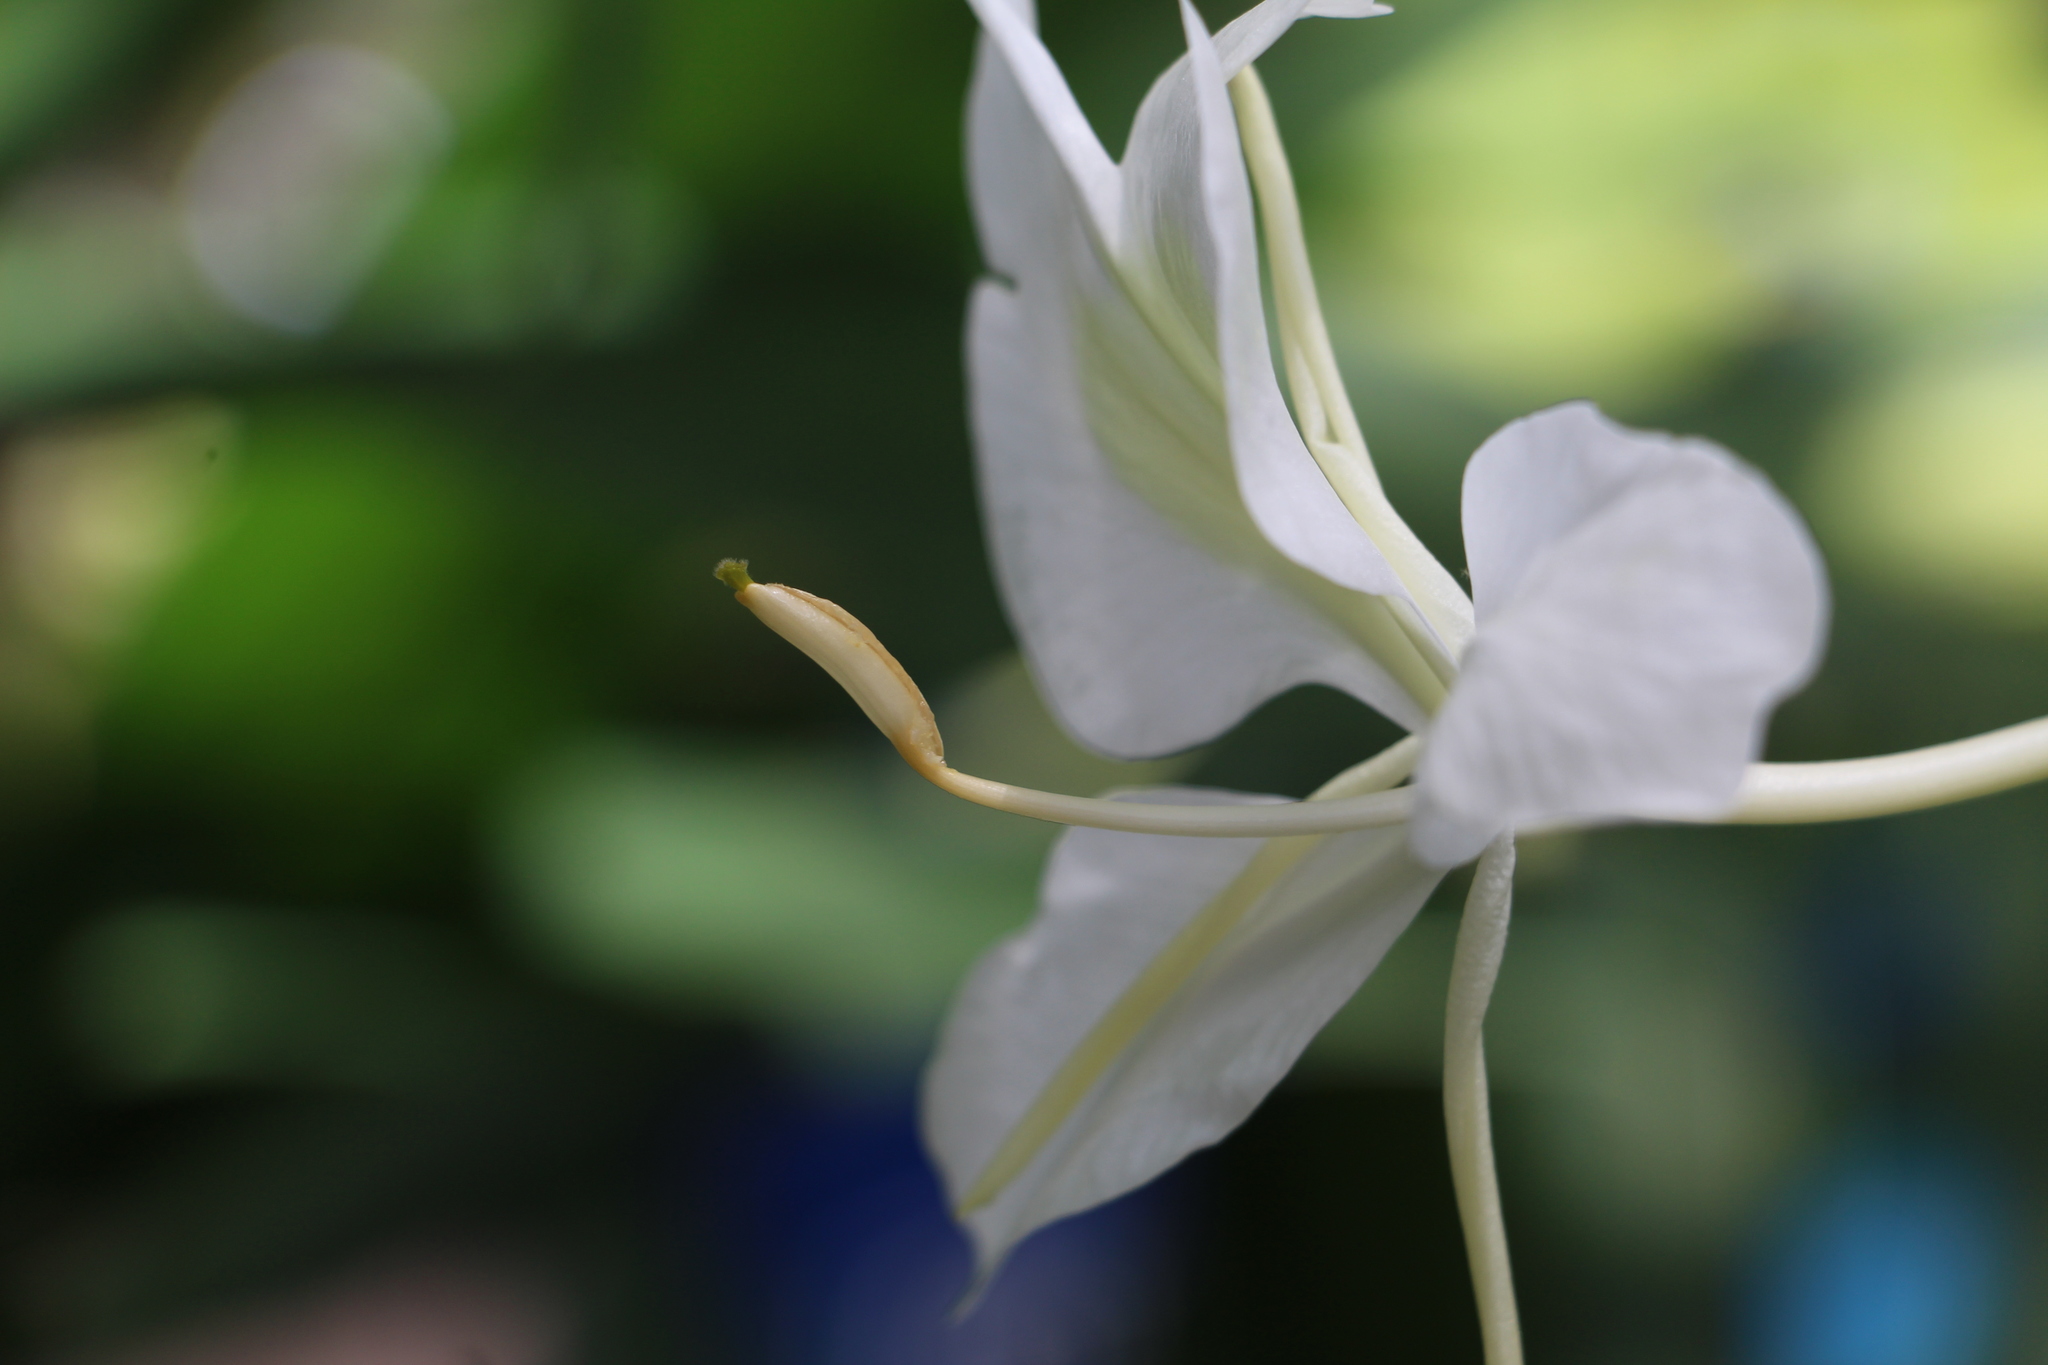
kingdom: Plantae
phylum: Tracheophyta
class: Liliopsida
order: Zingiberales
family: Zingiberaceae
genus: Hedychium
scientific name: Hedychium coronarium
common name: White garland-lily
